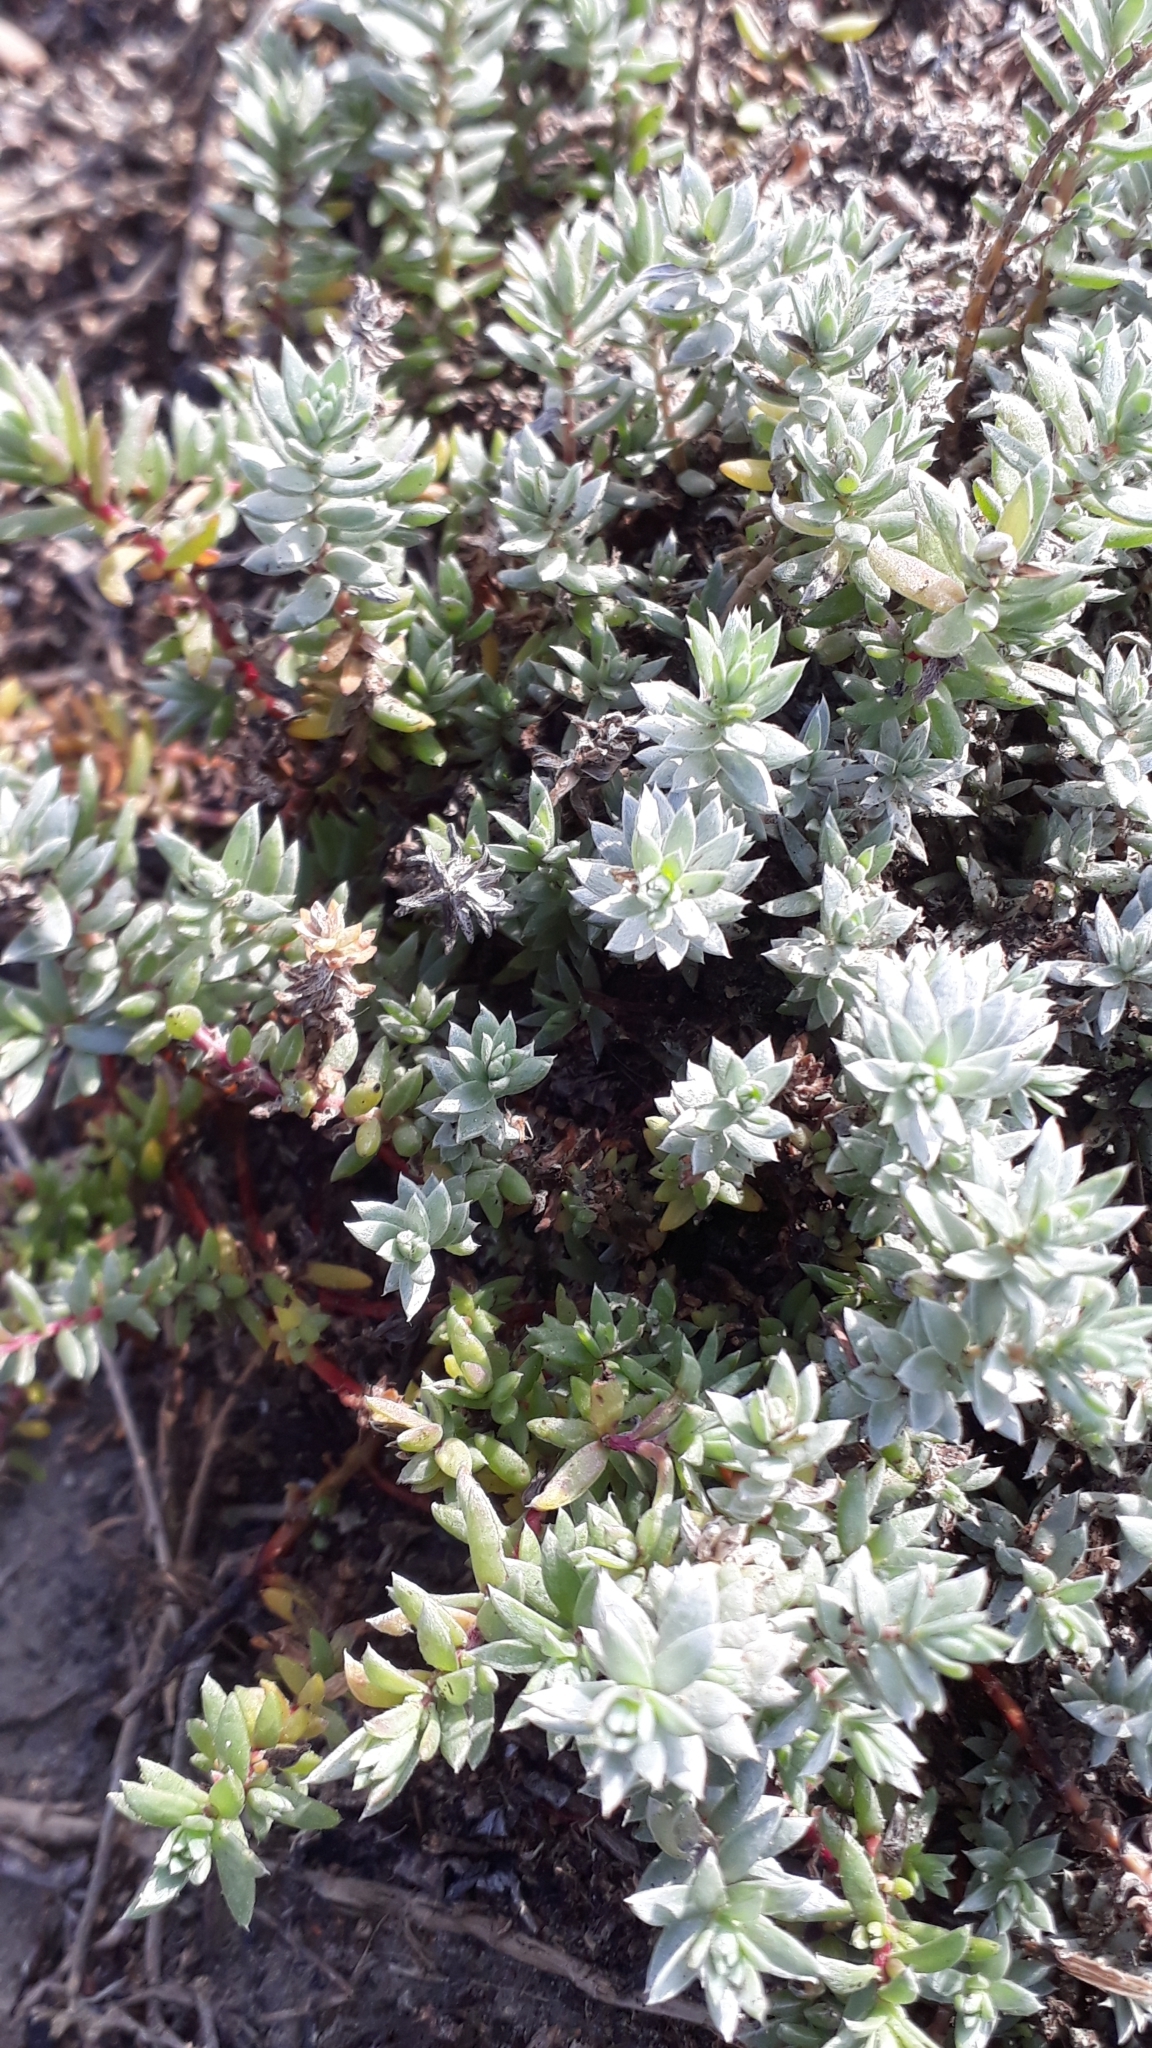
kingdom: Plantae
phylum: Tracheophyta
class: Magnoliopsida
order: Caryophyllales
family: Amaranthaceae
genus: Chenolea
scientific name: Chenolea diffusa
